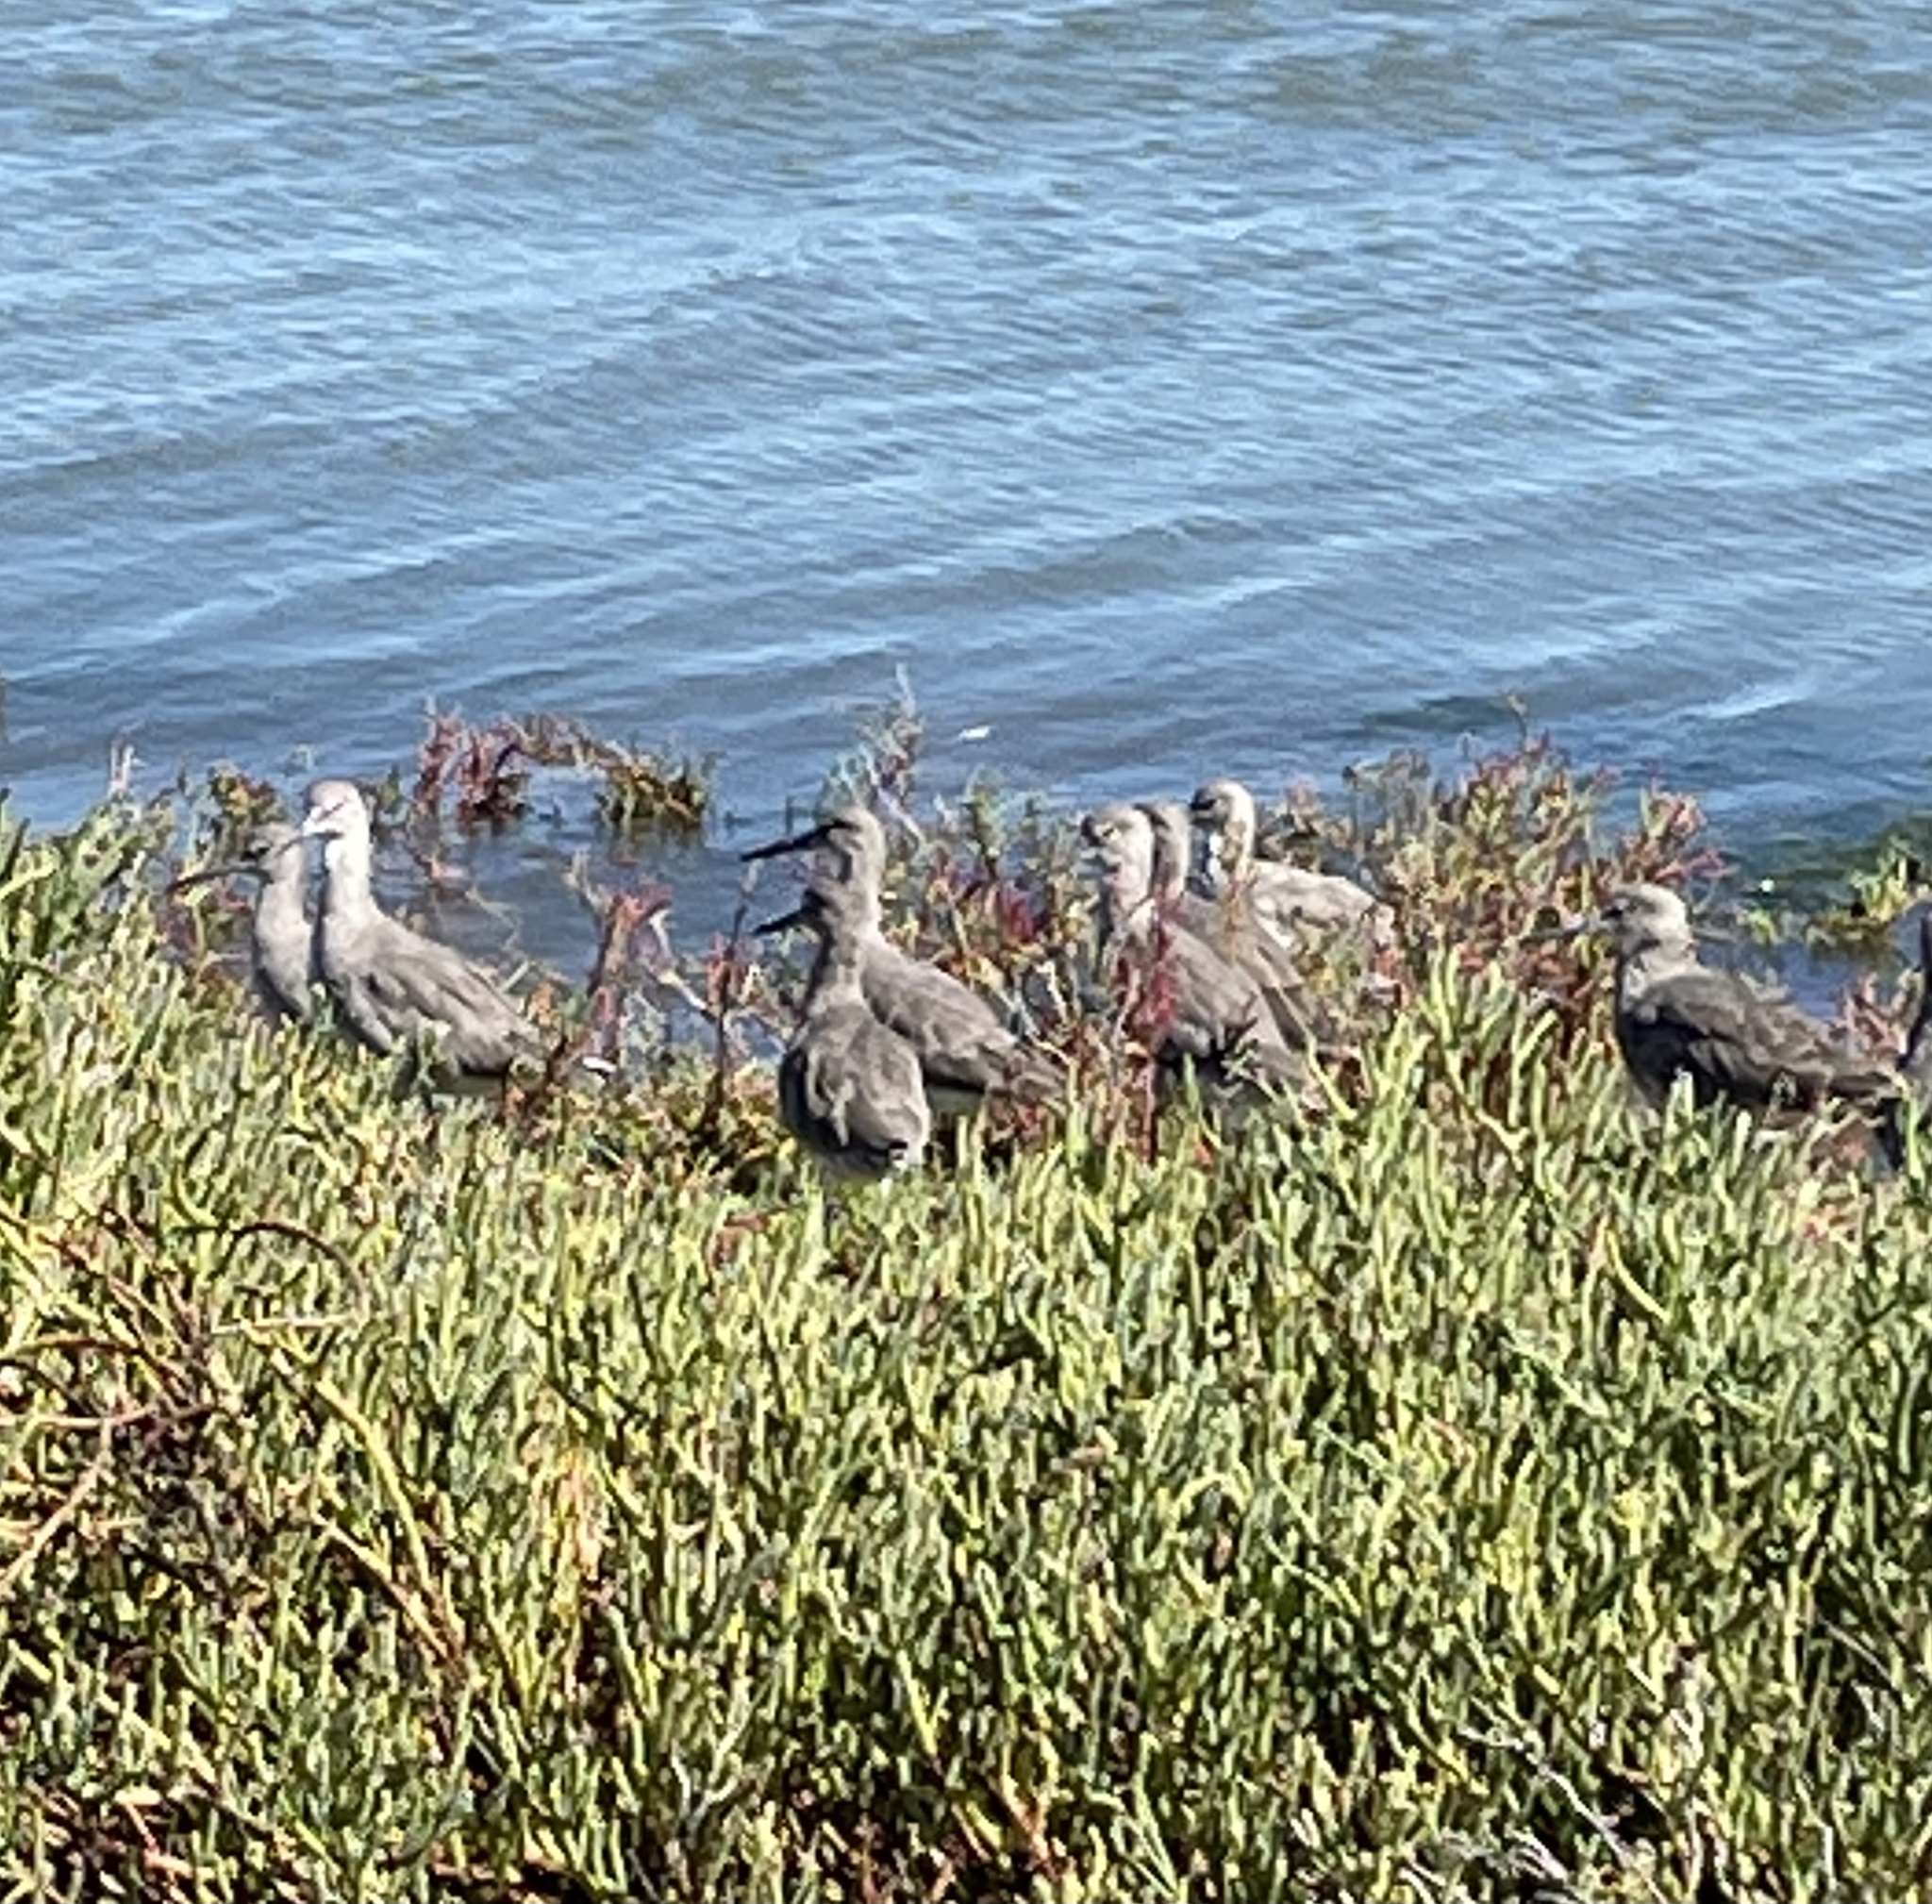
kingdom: Animalia
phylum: Chordata
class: Aves
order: Charadriiformes
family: Scolopacidae
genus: Tringa
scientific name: Tringa semipalmata
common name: Willet
